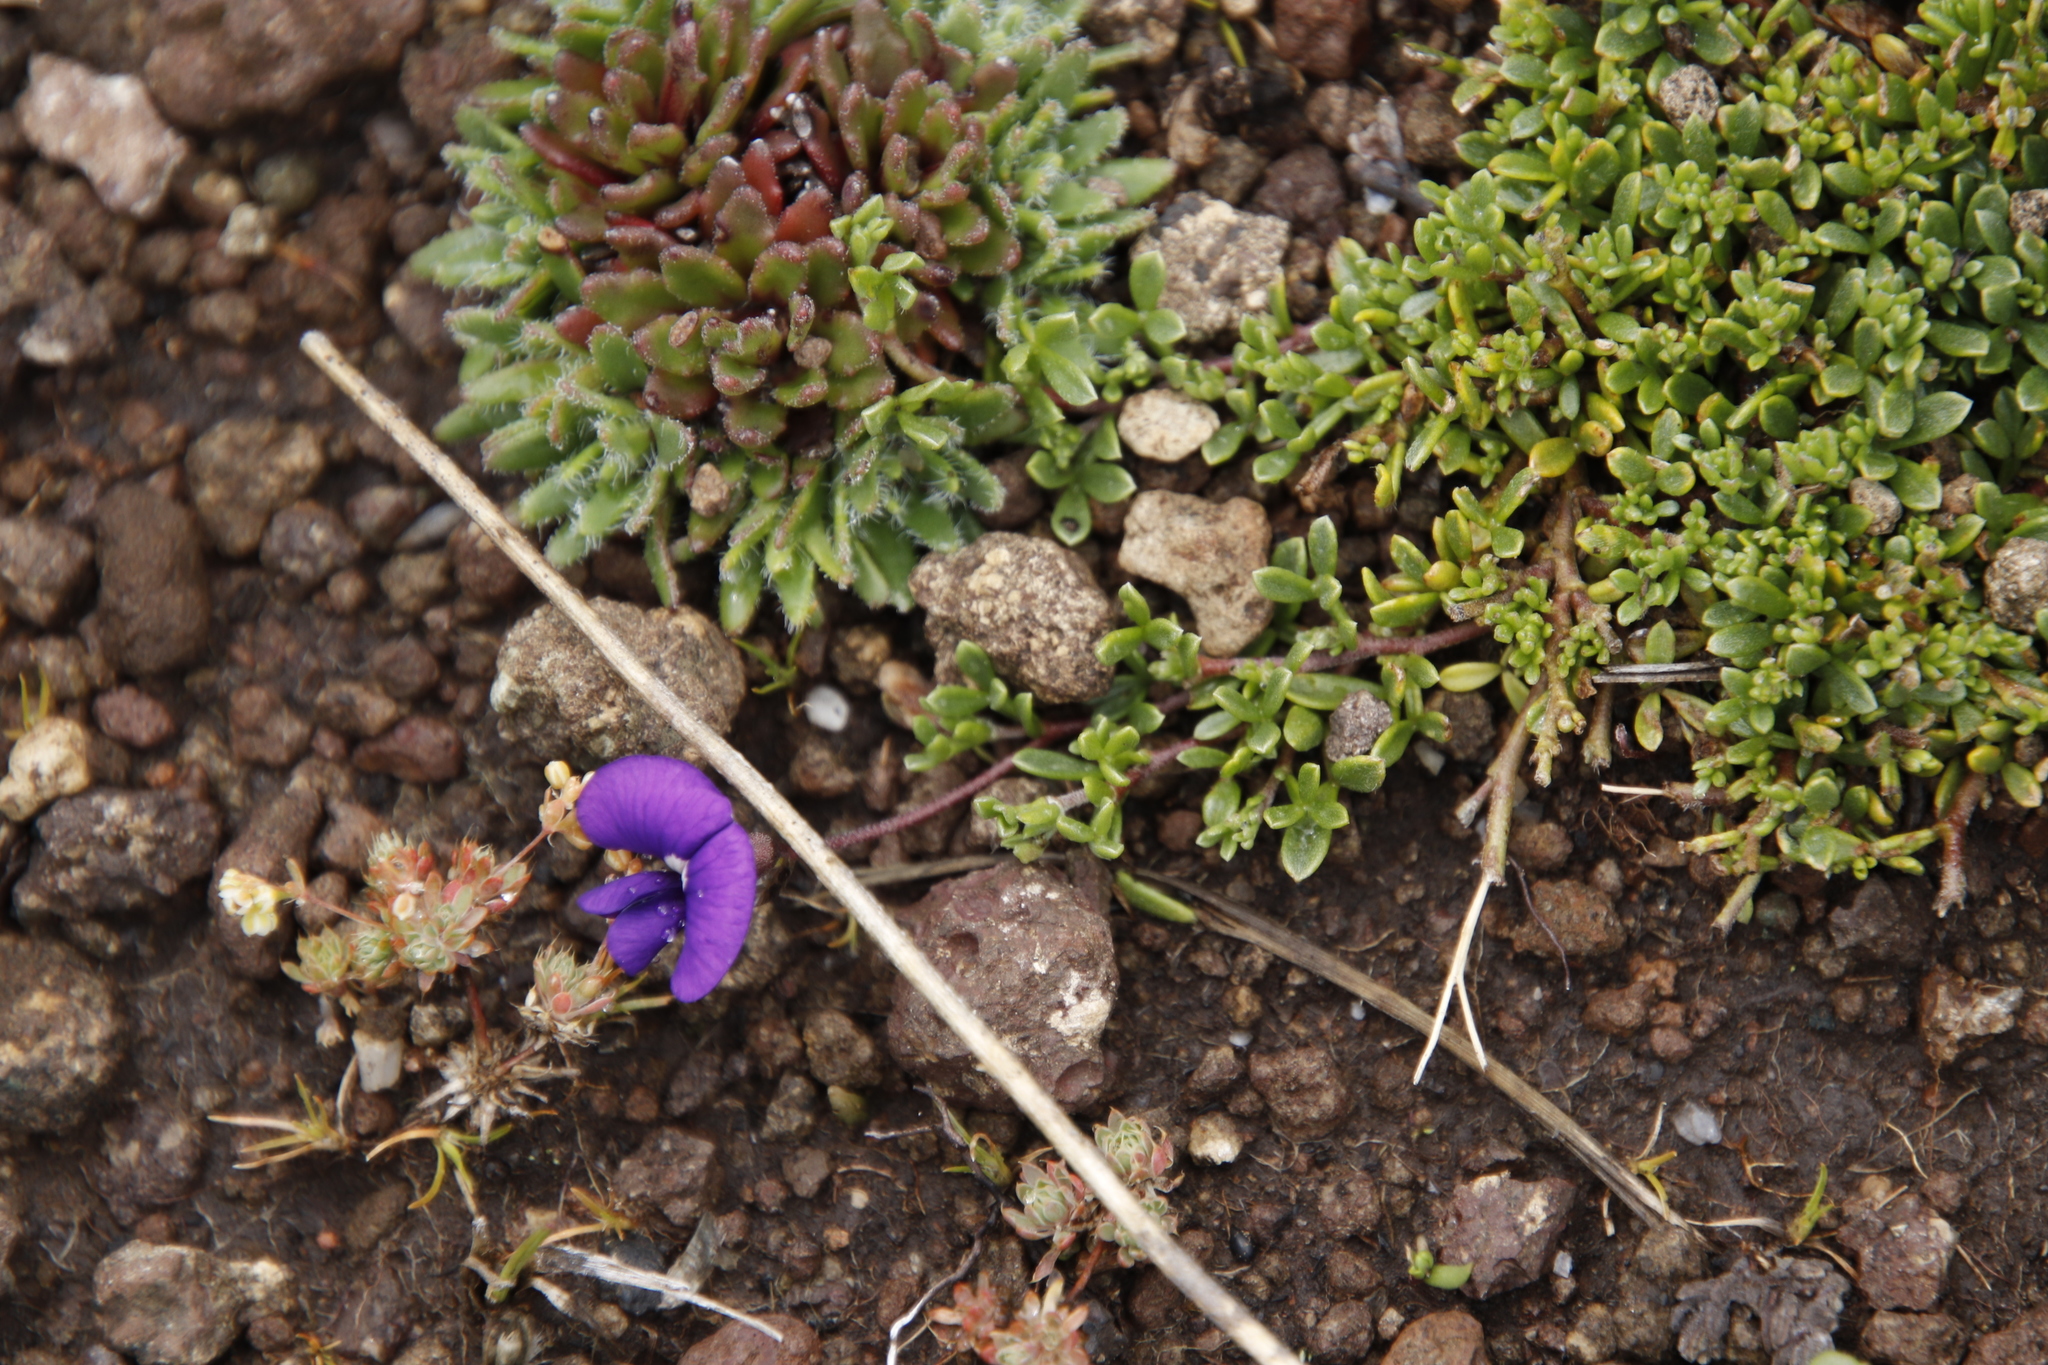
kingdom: Plantae
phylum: Tracheophyta
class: Magnoliopsida
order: Fabales
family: Fabaceae
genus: Lotononis
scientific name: Lotononis galpinii
